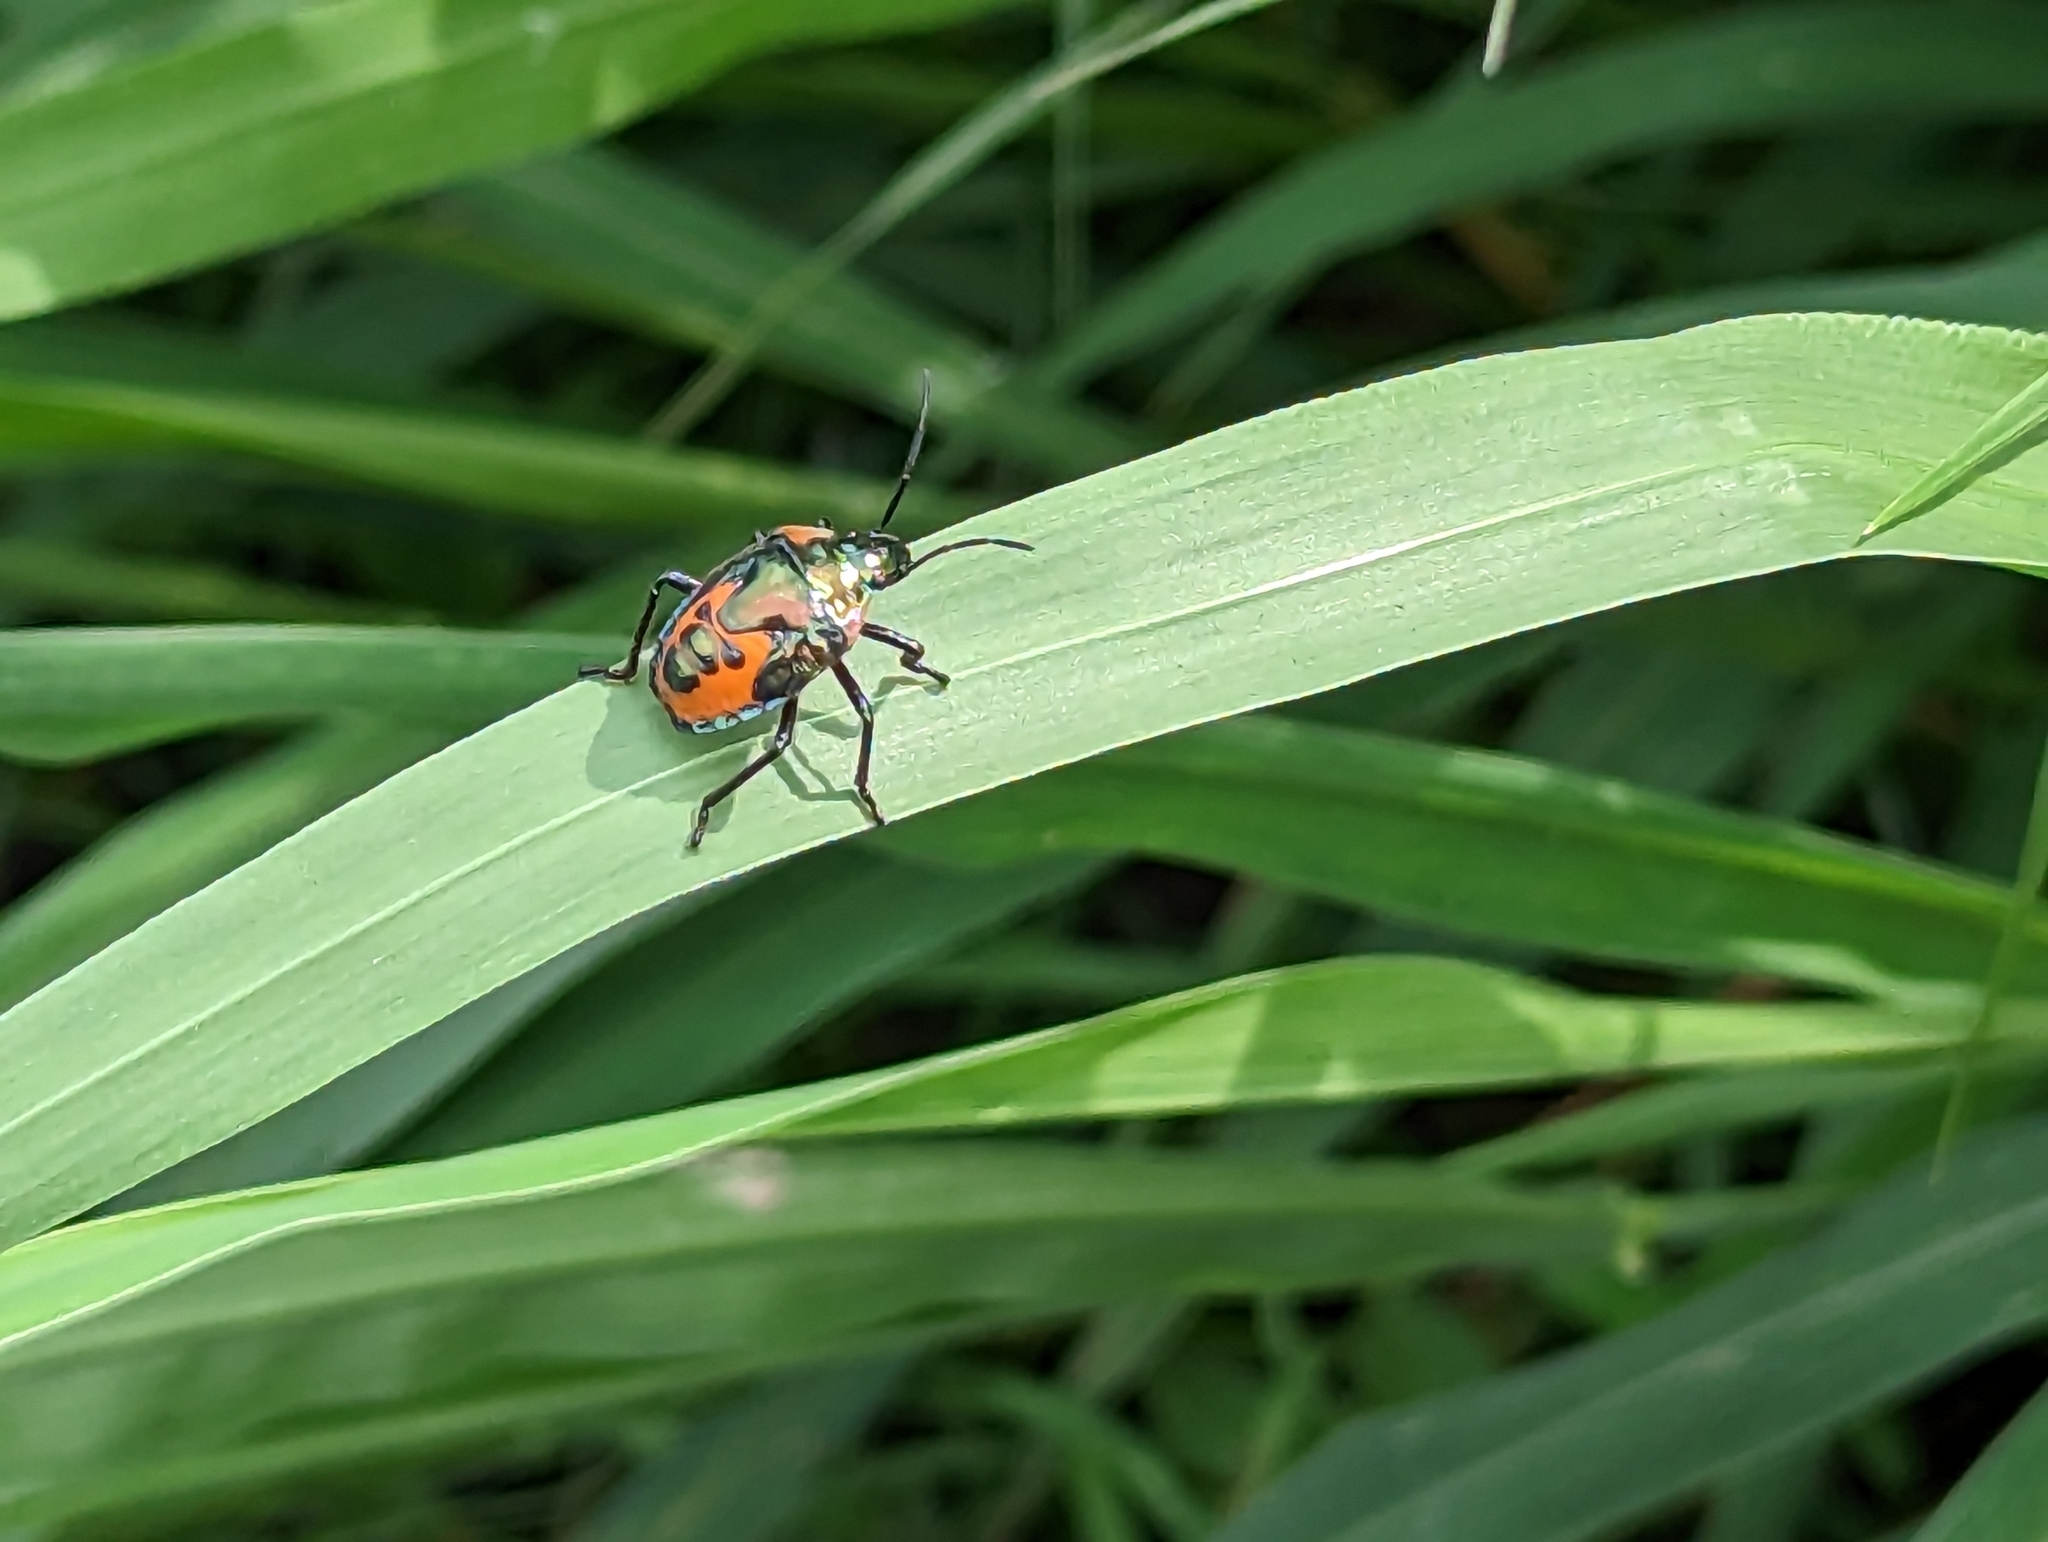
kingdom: Animalia
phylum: Arthropoda
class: Insecta
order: Hemiptera
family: Scutelleridae
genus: Cantao
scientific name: Cantao ocellatus
